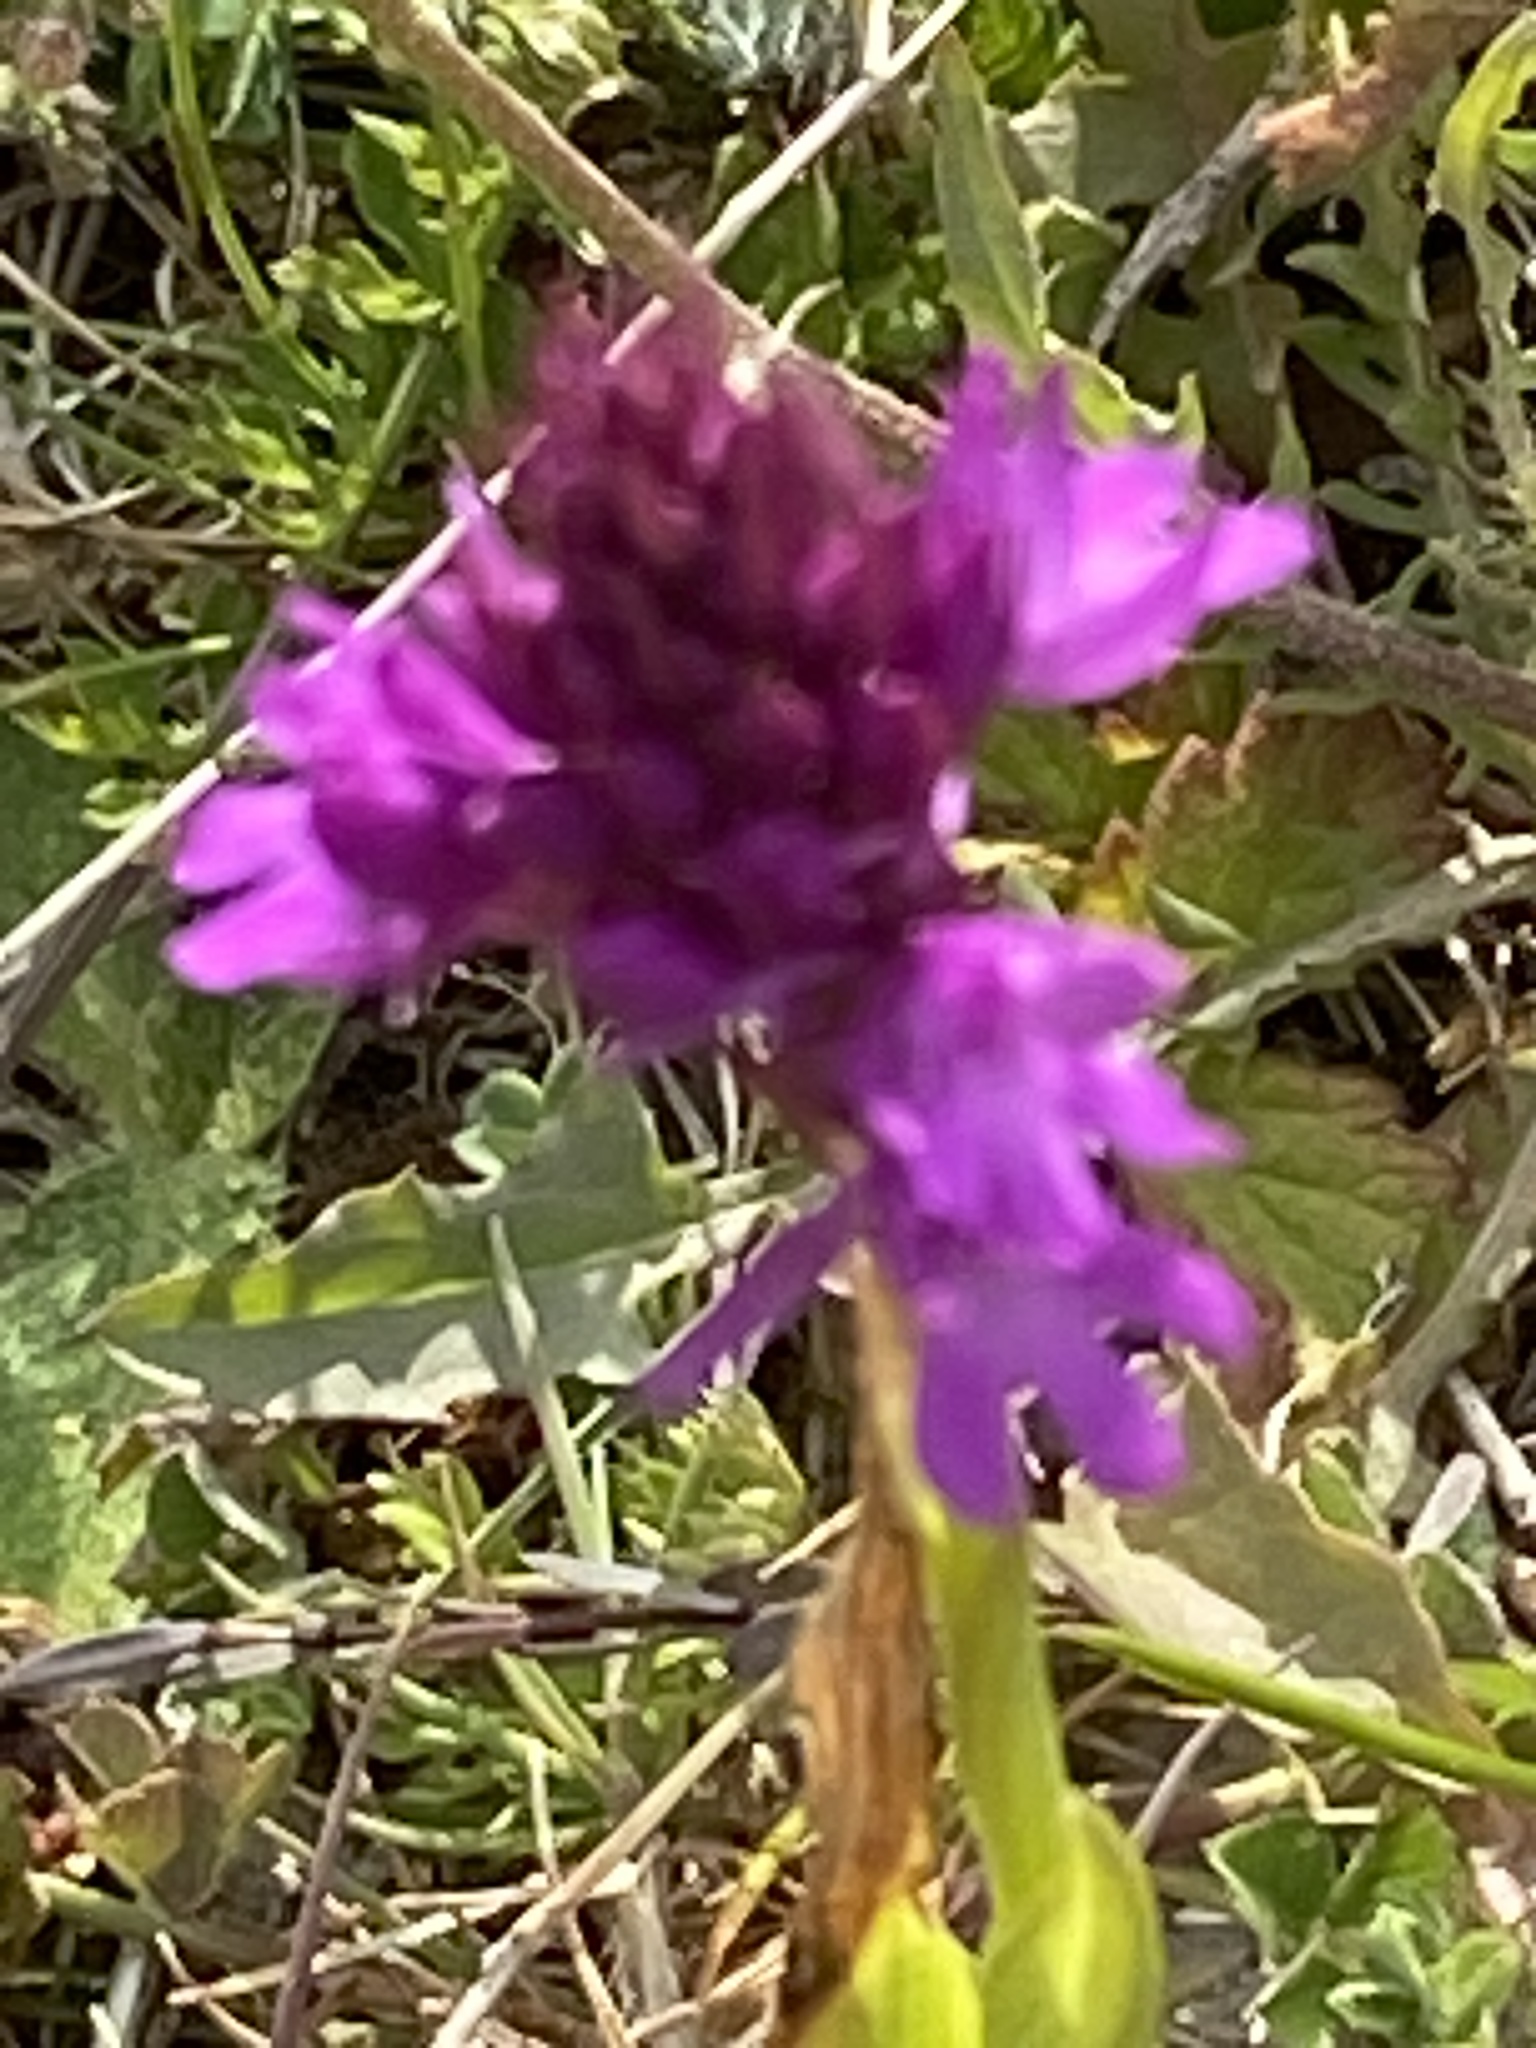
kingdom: Plantae
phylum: Tracheophyta
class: Liliopsida
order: Asparagales
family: Orchidaceae
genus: Anacamptis
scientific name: Anacamptis pyramidalis
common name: Pyramidal orchid
